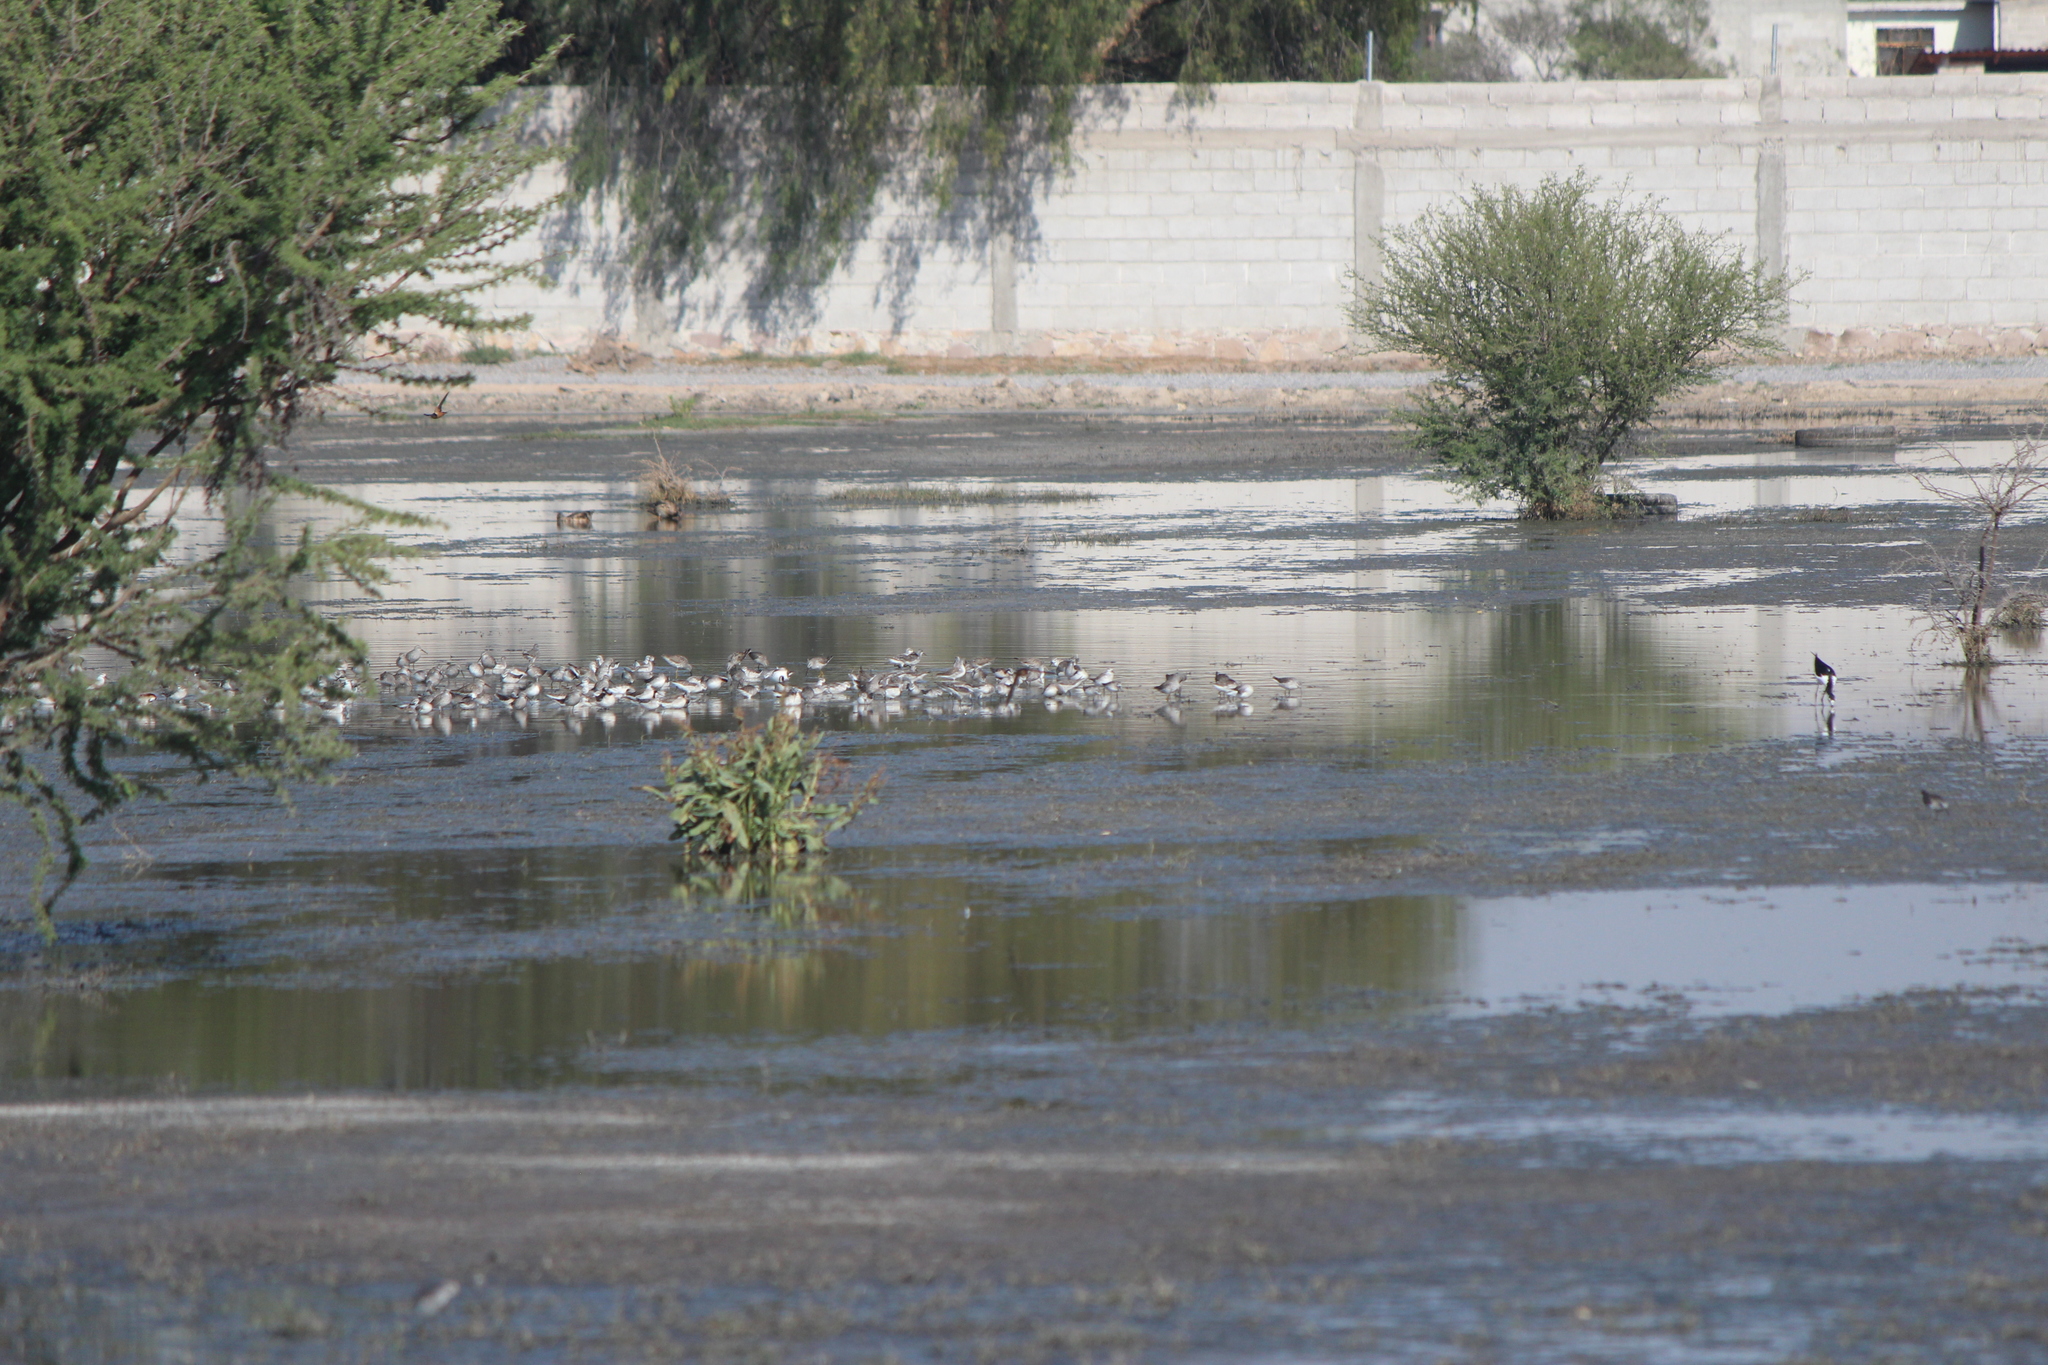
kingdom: Animalia
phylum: Chordata
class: Aves
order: Charadriiformes
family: Scolopacidae
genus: Phalaropus
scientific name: Phalaropus tricolor
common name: Wilson's phalarope
